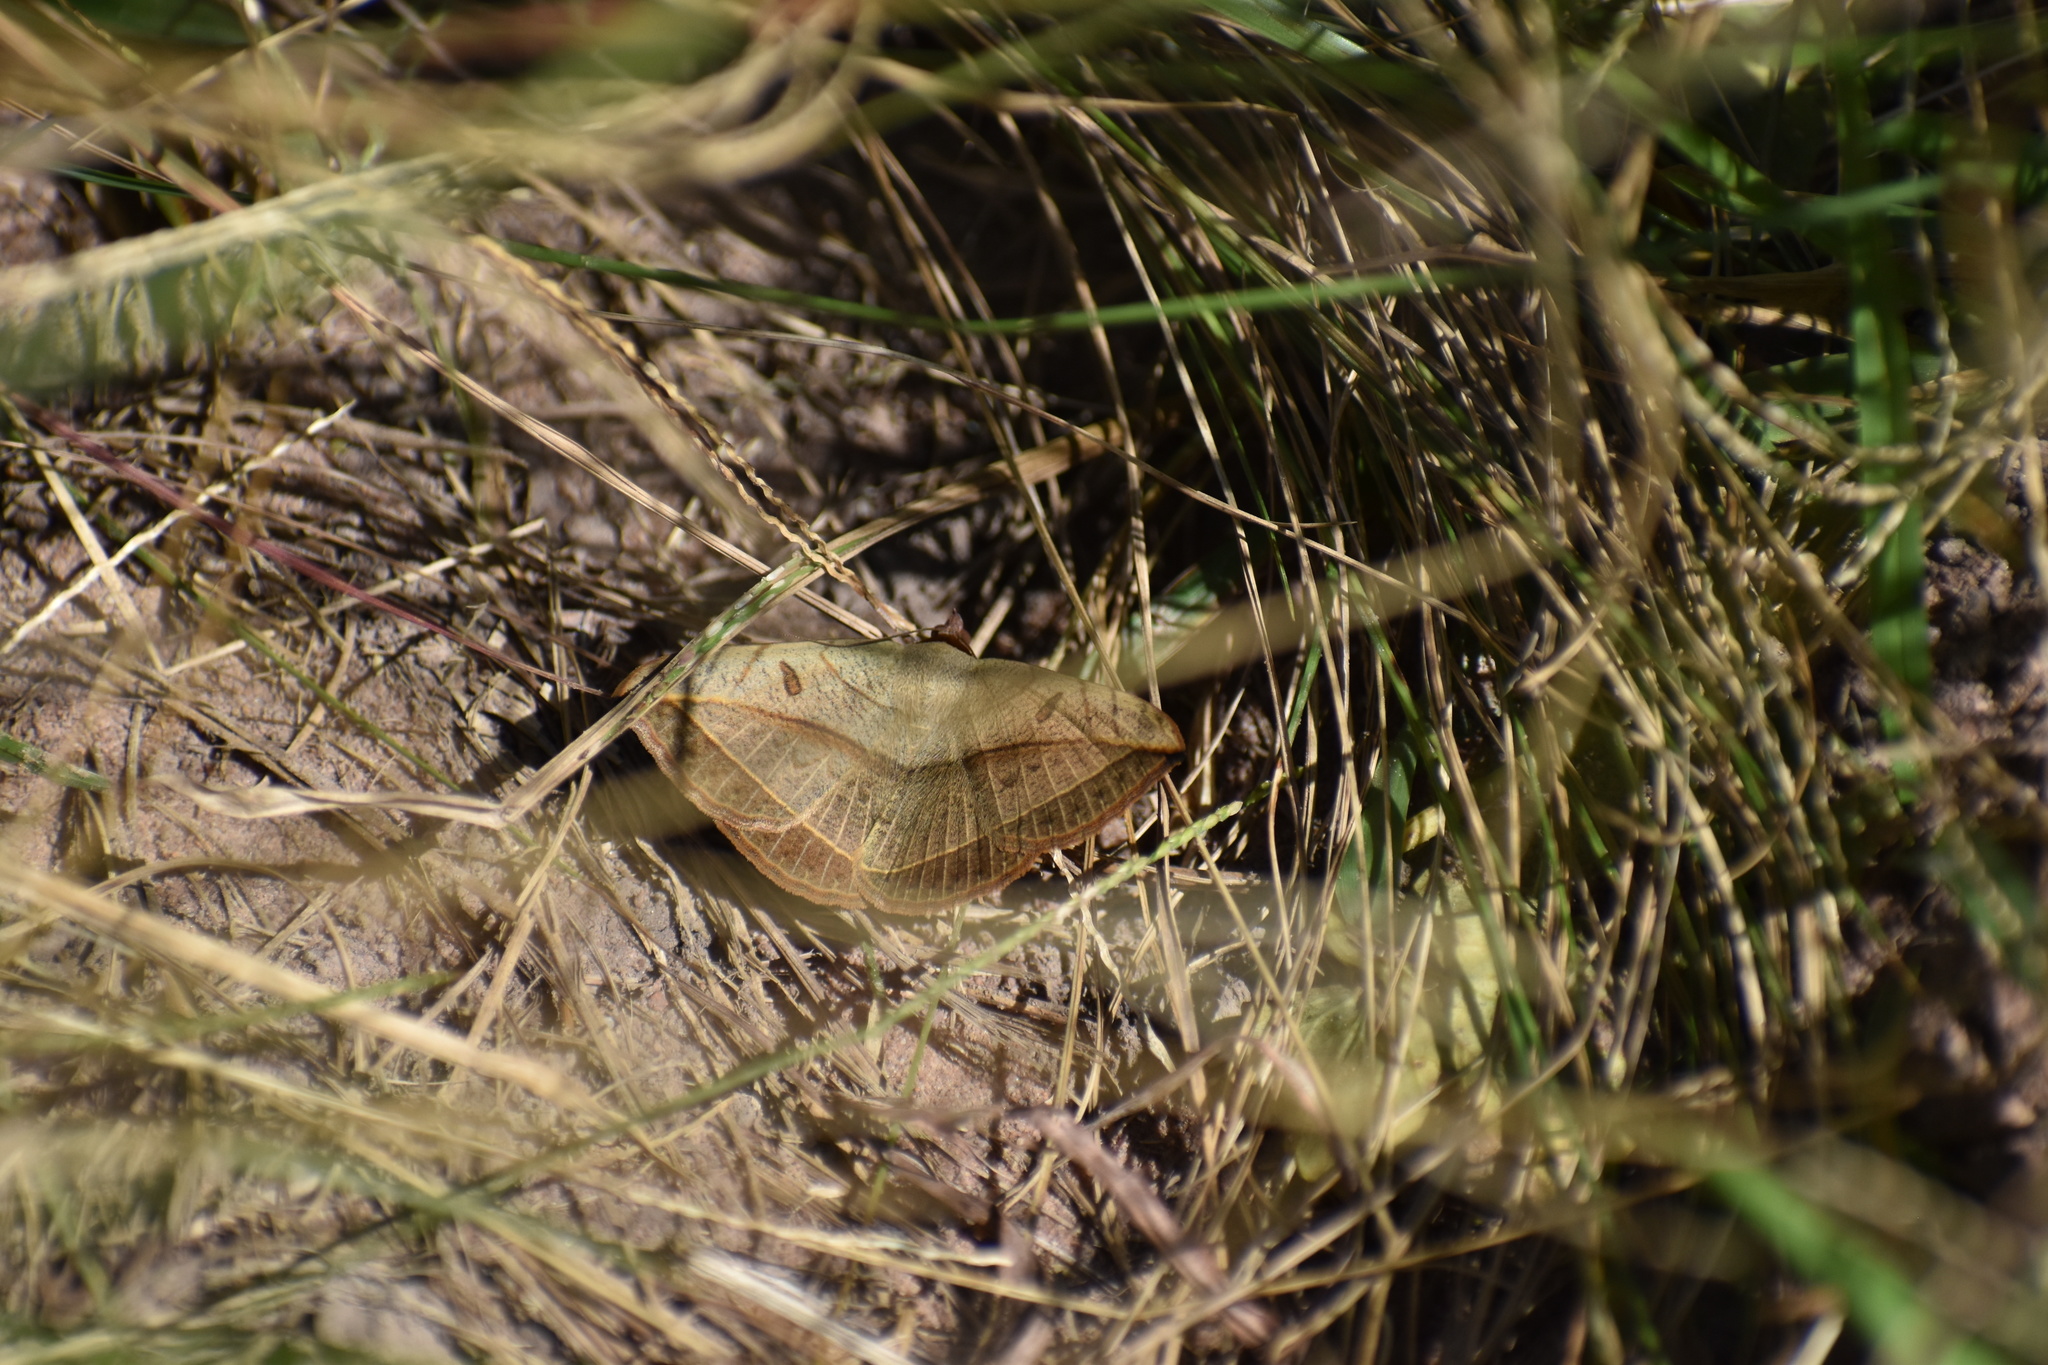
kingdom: Animalia
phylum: Arthropoda
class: Insecta
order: Lepidoptera
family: Erebidae
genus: Entomogramma
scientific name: Entomogramma pardus
